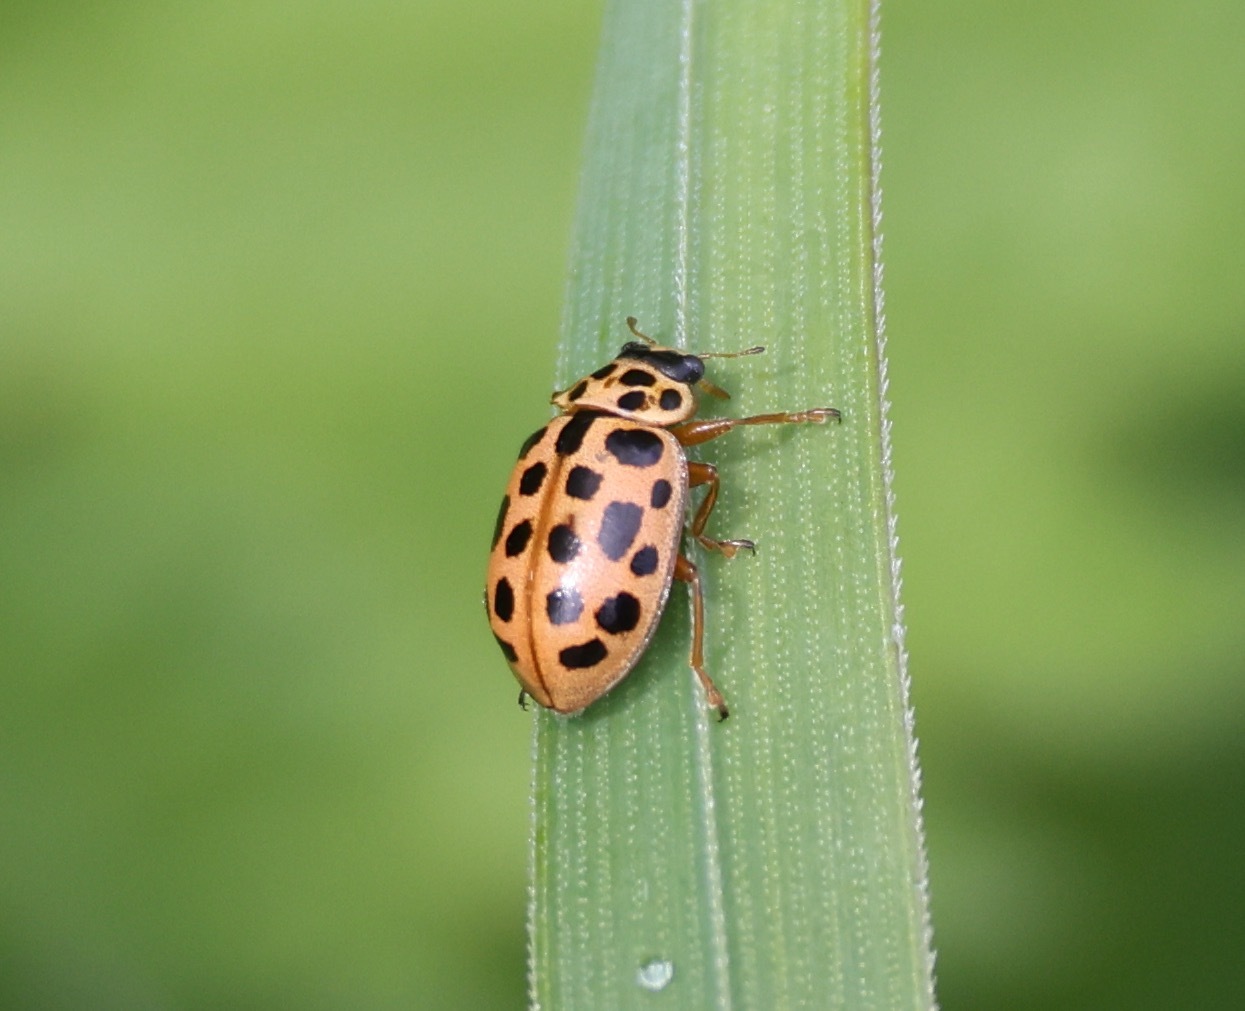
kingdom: Animalia
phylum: Arthropoda
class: Insecta
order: Coleoptera
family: Coccinellidae
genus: Anisosticta
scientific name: Anisosticta novemdecimpunctata
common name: Water ladybird
